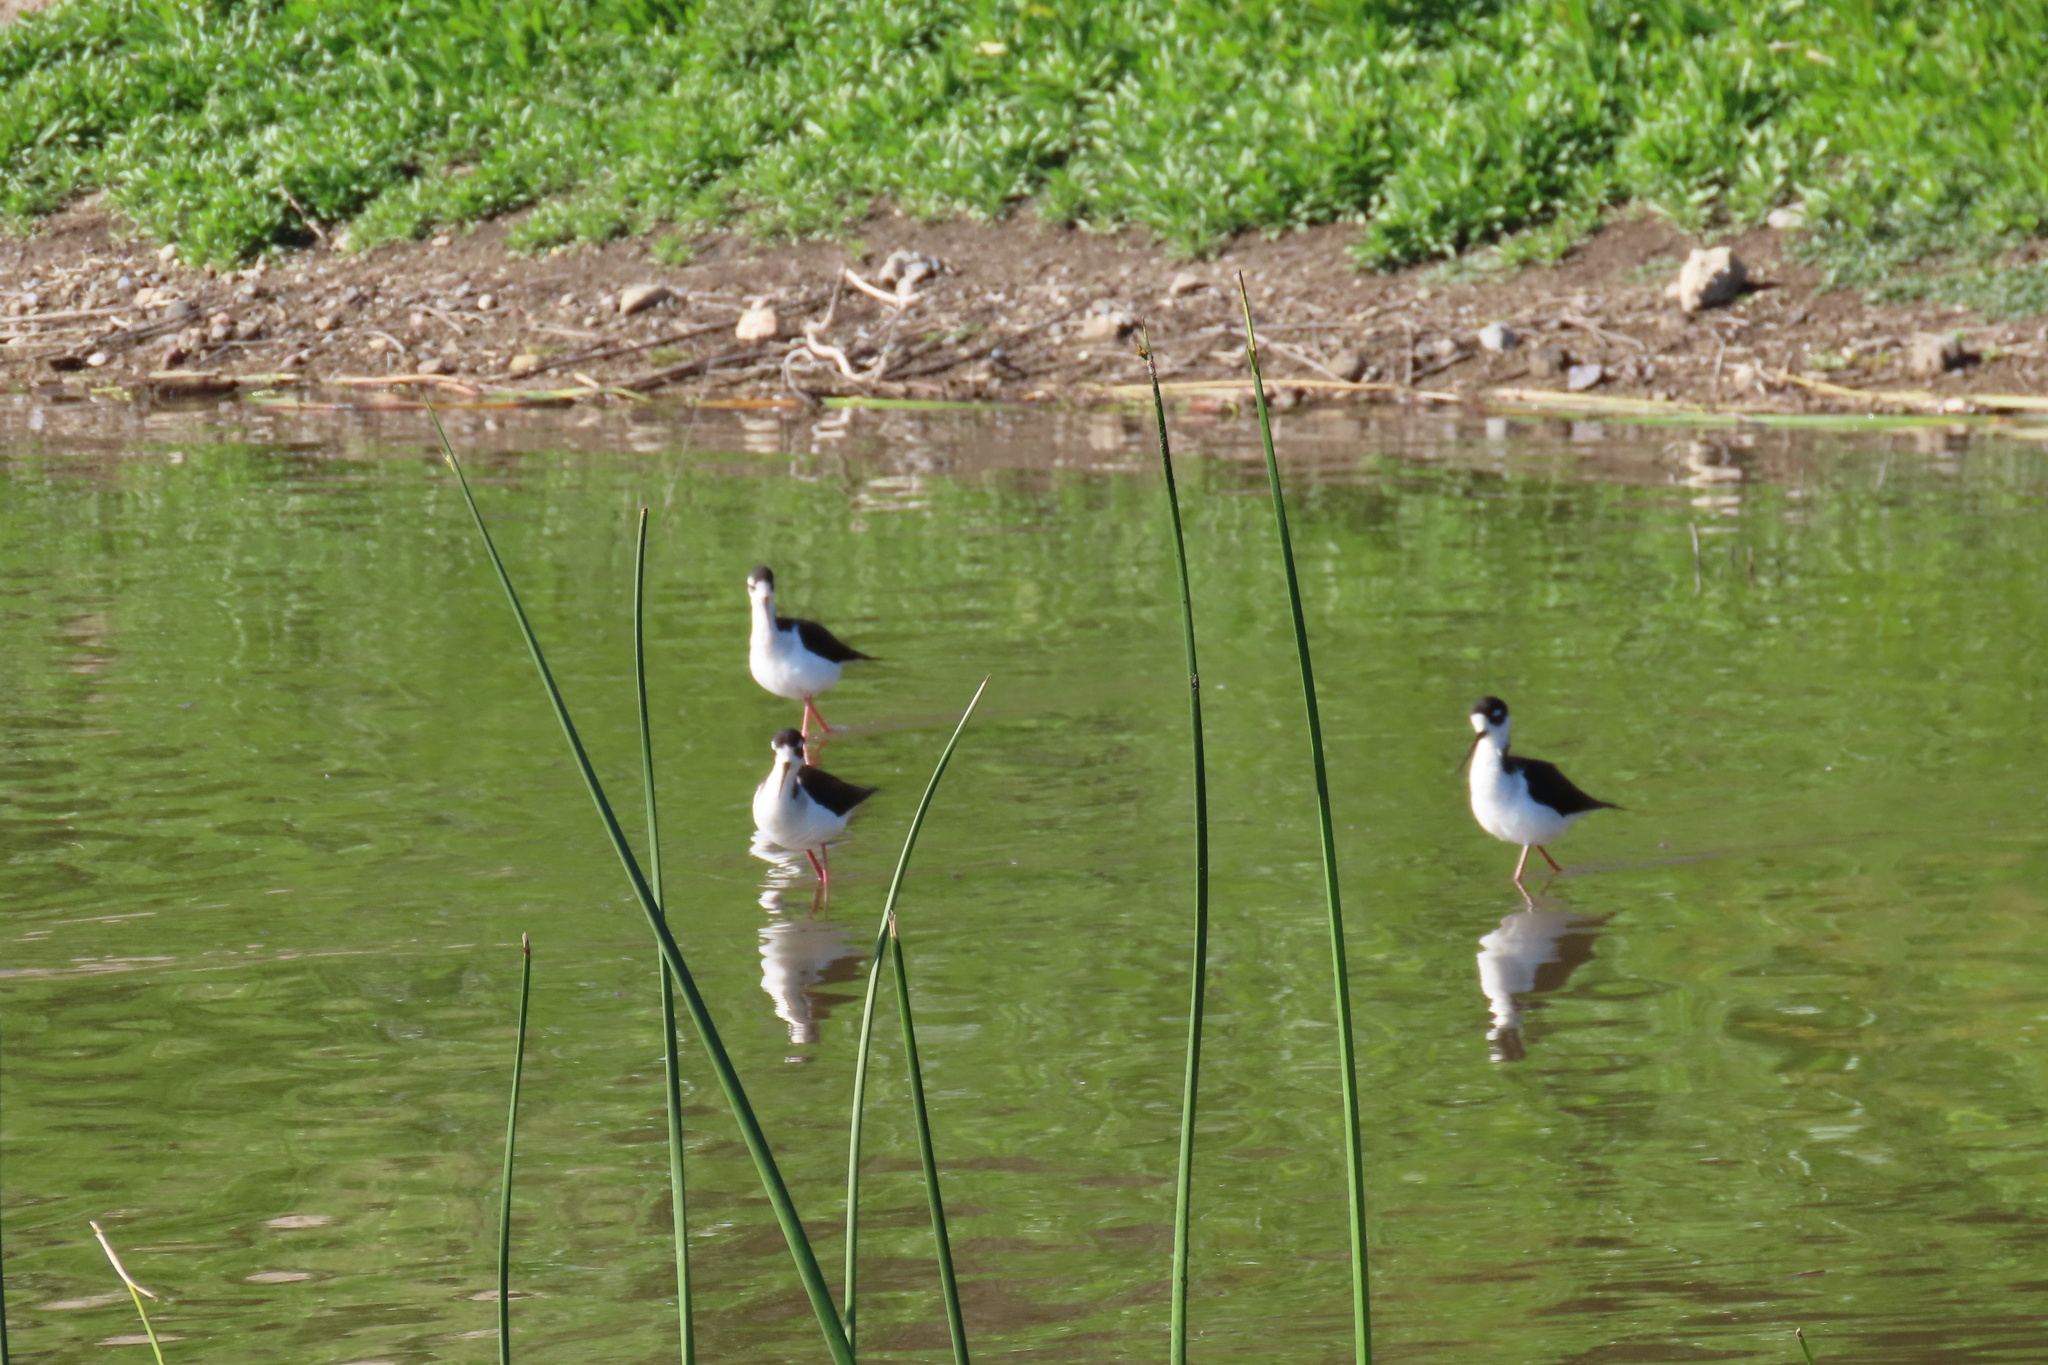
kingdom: Animalia
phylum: Chordata
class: Aves
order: Charadriiformes
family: Recurvirostridae
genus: Himantopus
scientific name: Himantopus mexicanus
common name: Black-necked stilt
